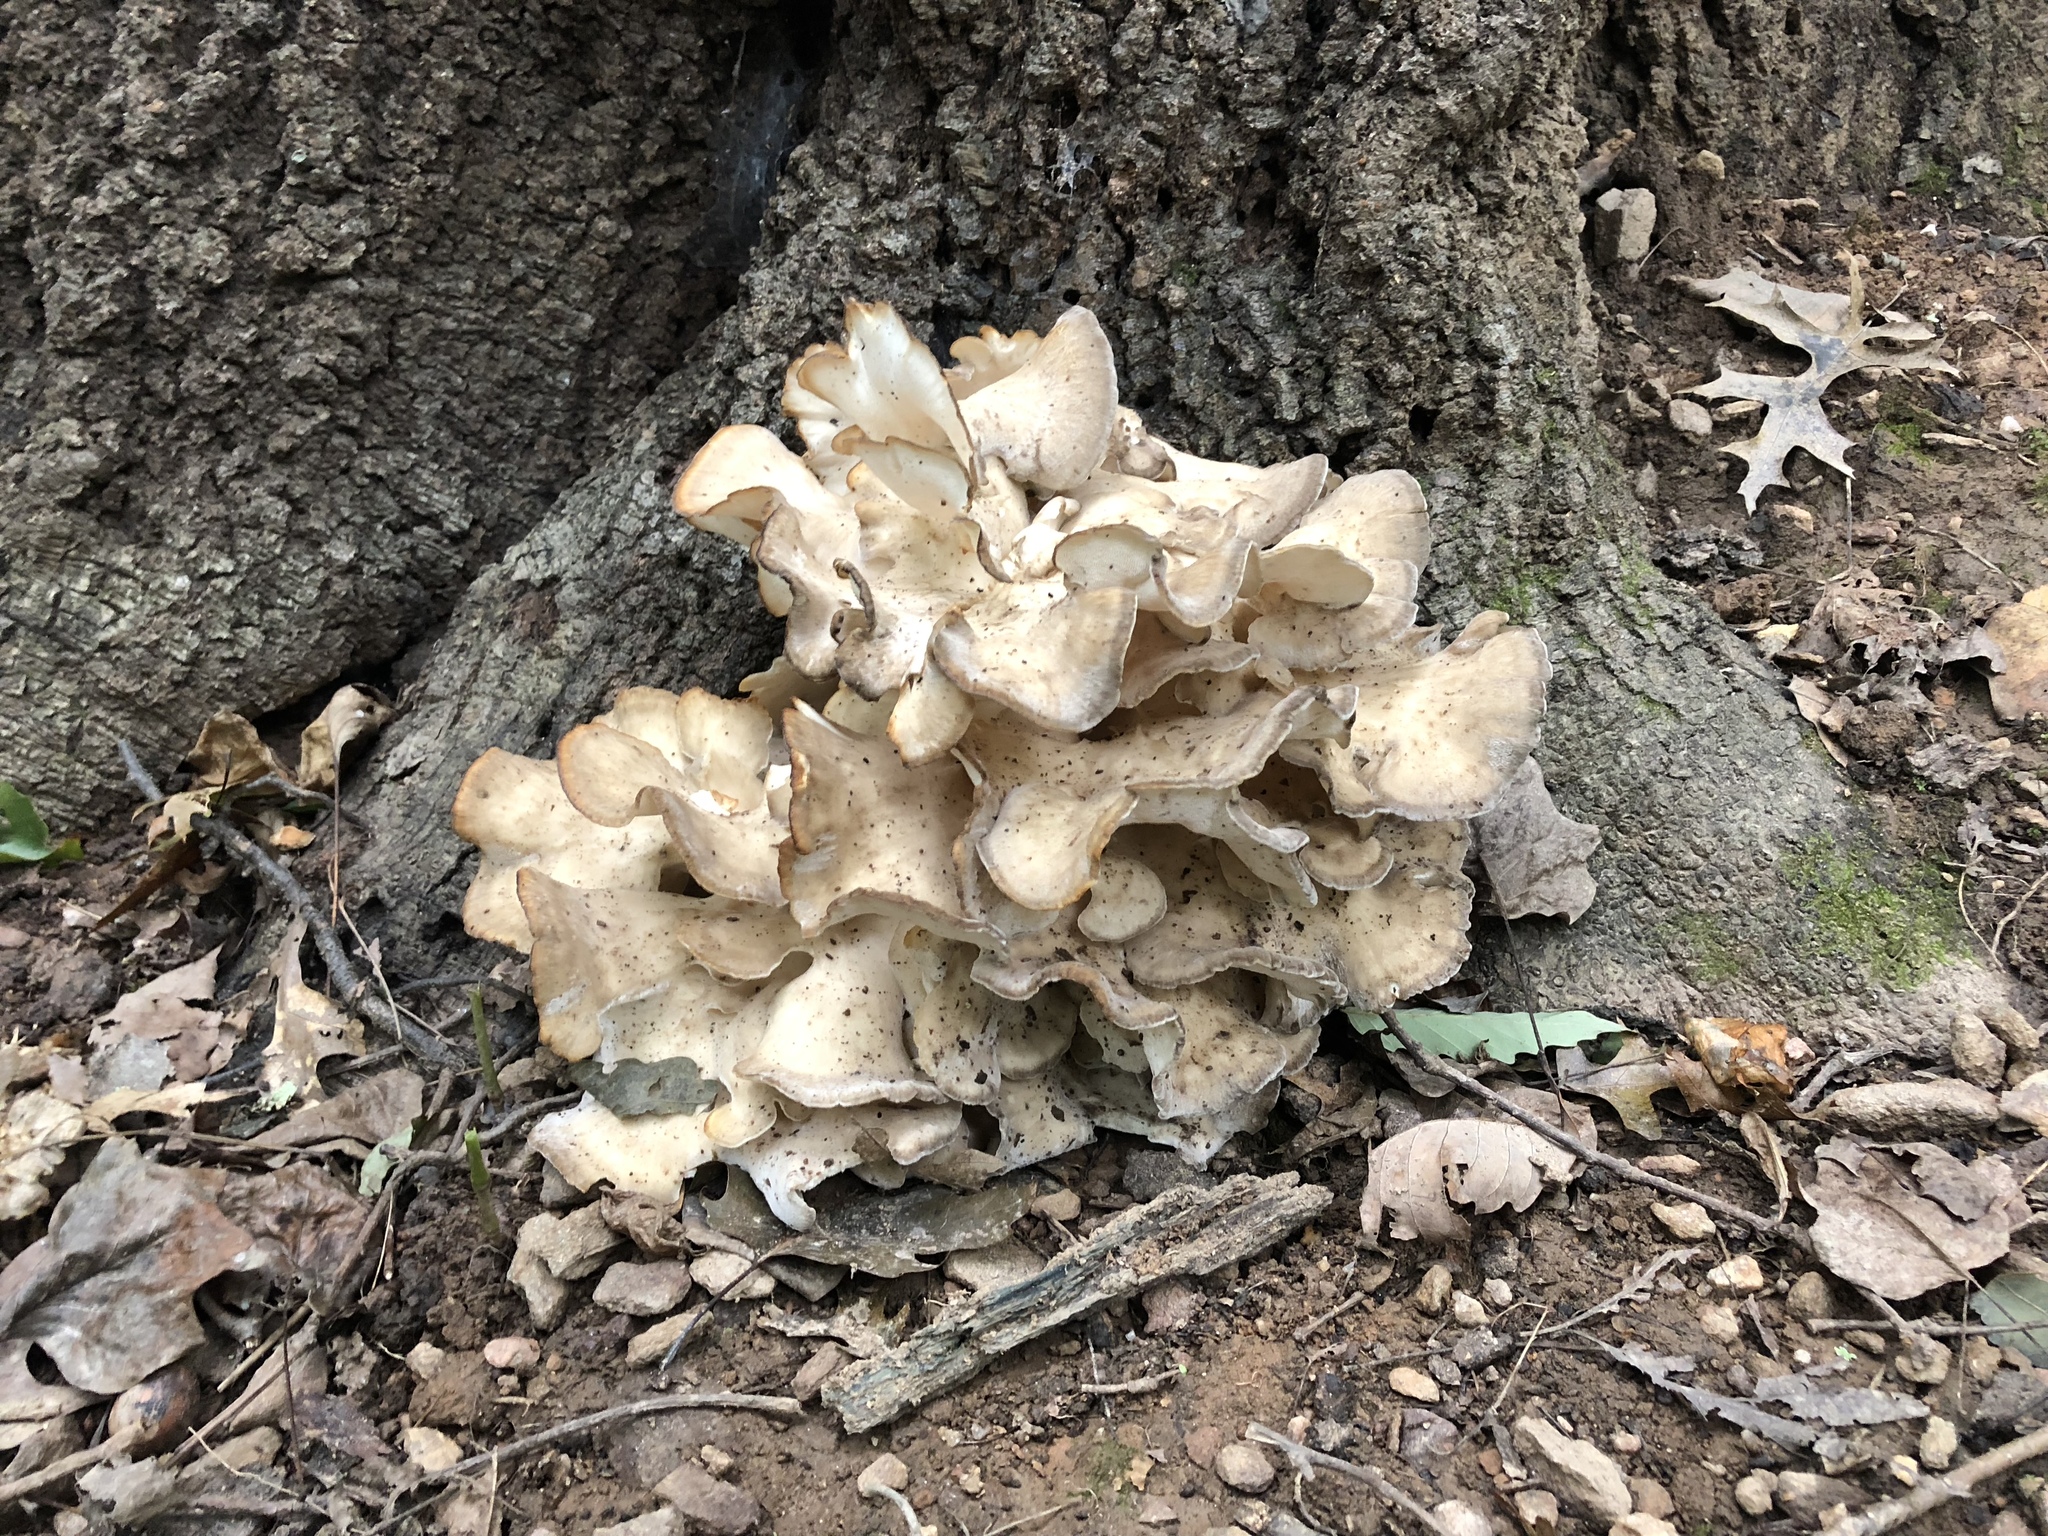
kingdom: Fungi
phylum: Basidiomycota
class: Agaricomycetes
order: Polyporales
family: Grifolaceae
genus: Grifola
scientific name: Grifola frondosa
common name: Hen of the woods
